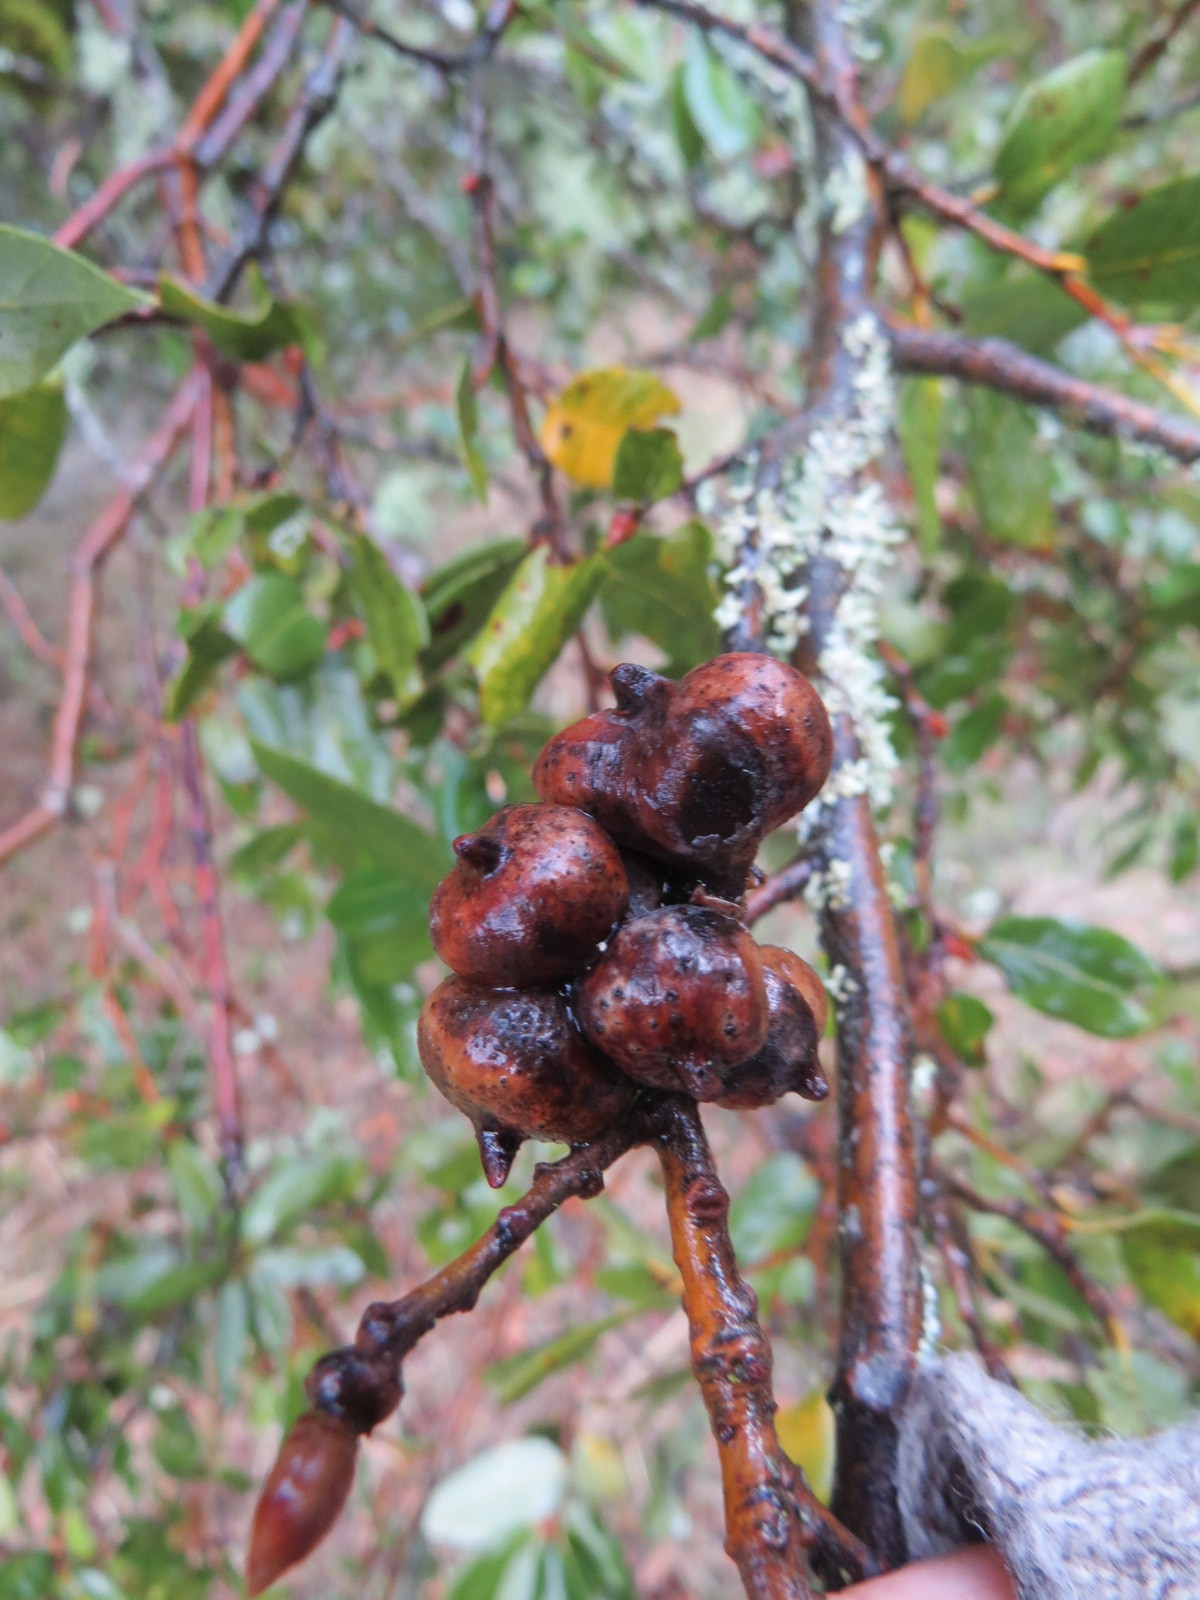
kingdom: Animalia
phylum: Arthropoda
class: Insecta
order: Hymenoptera
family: Cynipidae
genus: Heteroecus
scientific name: Heteroecus
